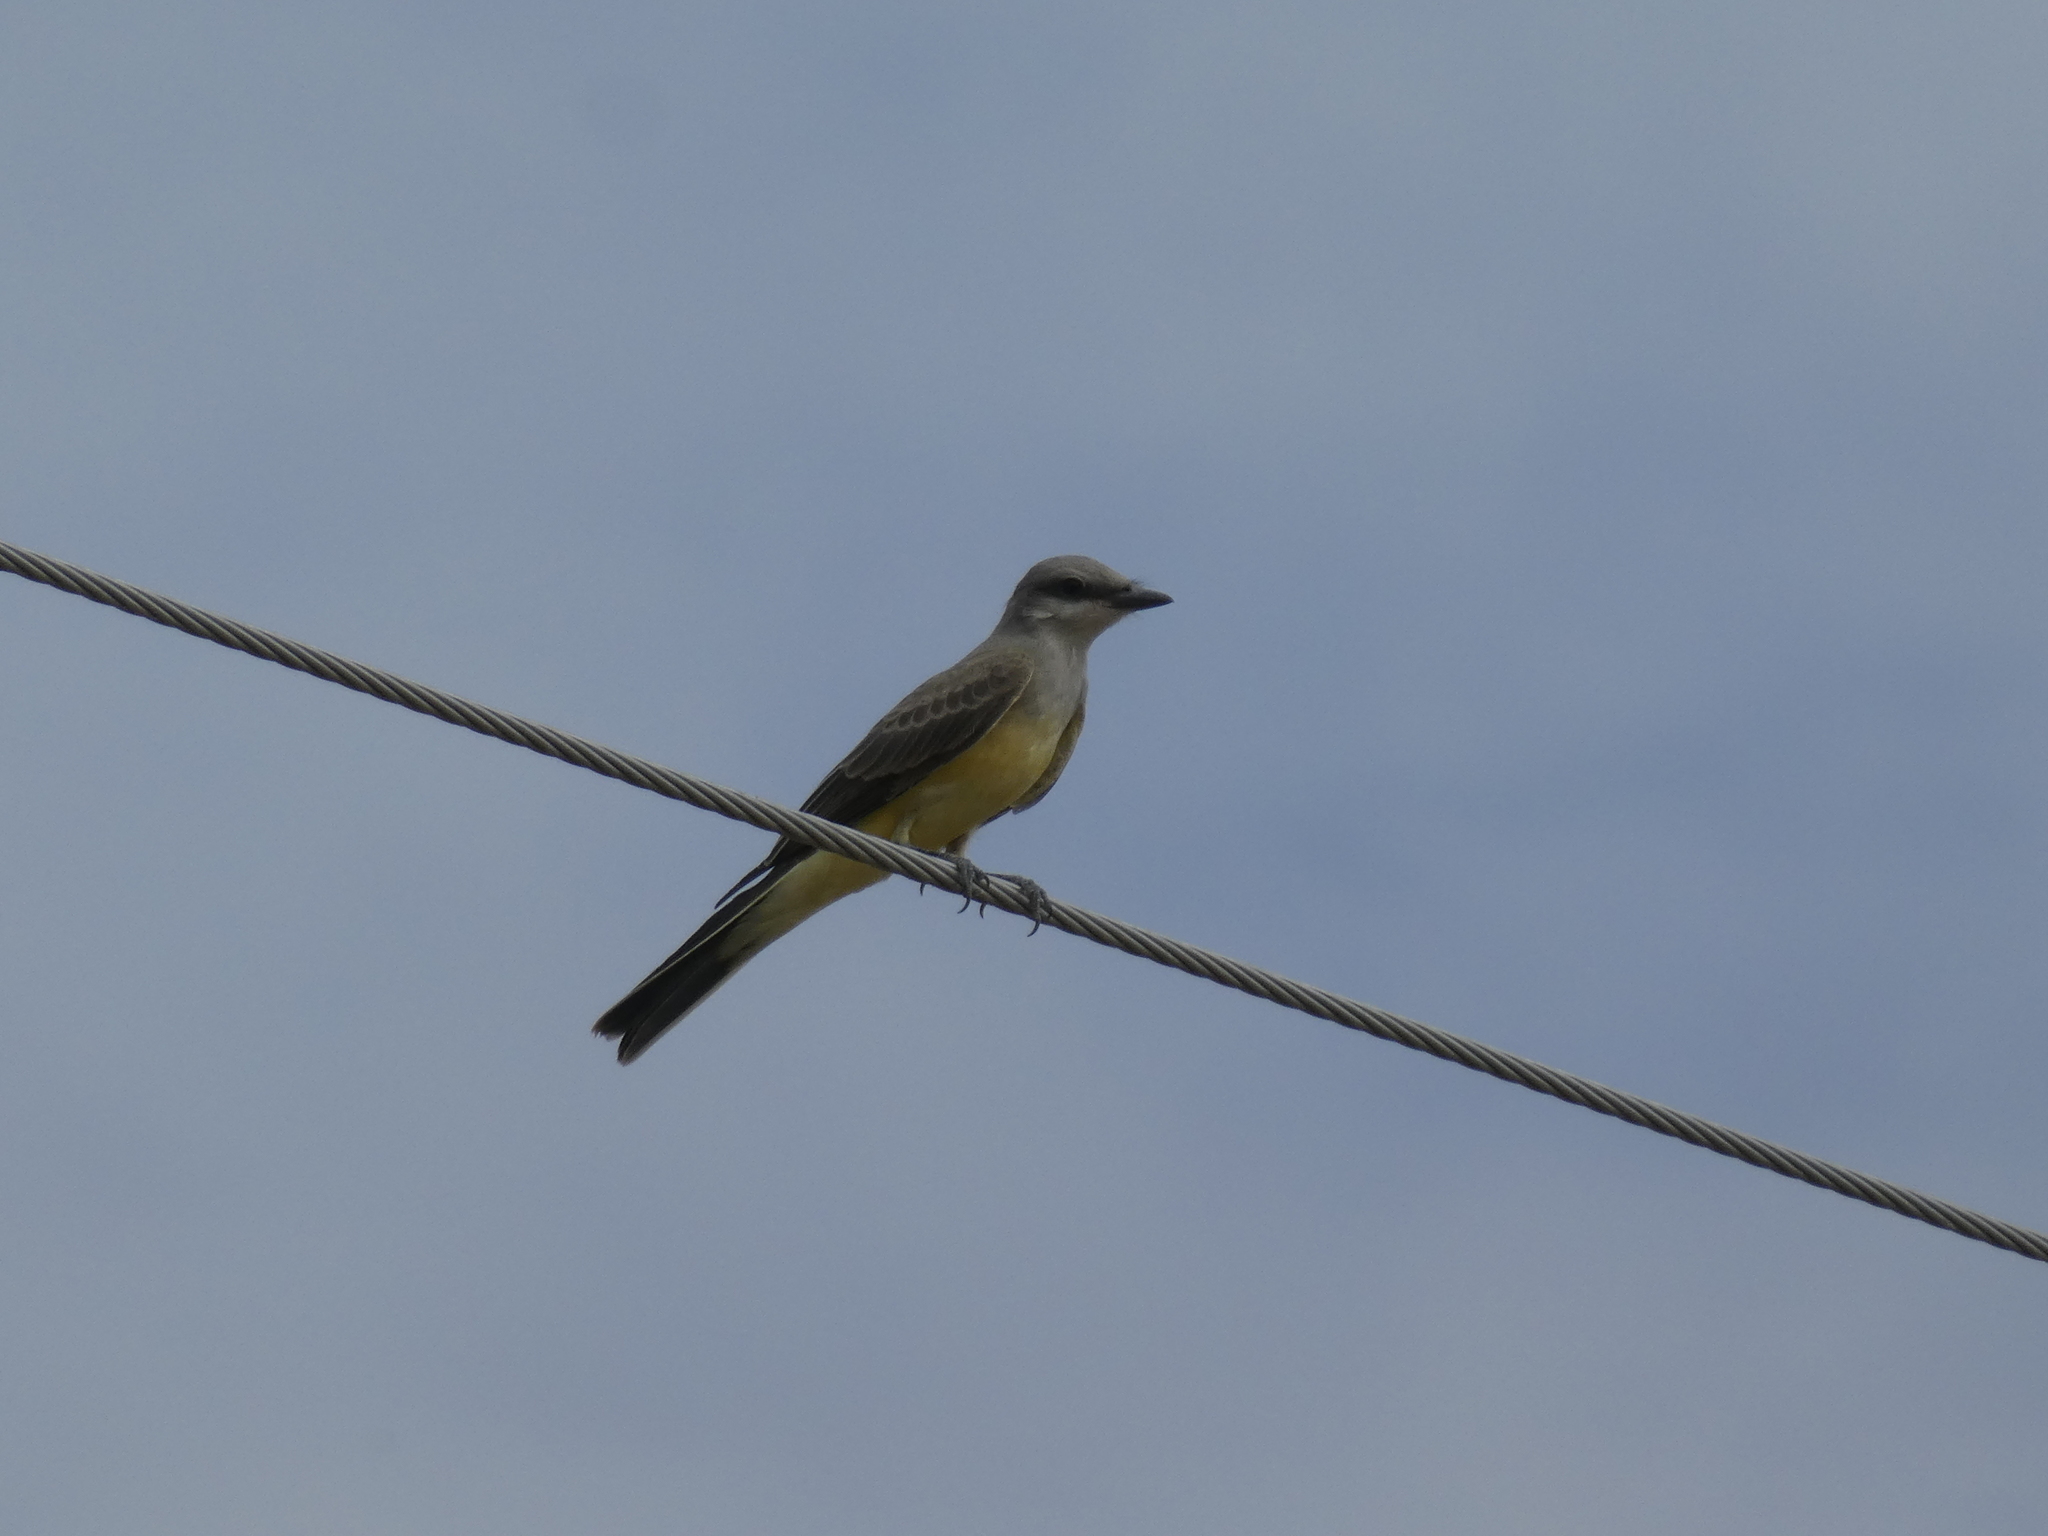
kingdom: Animalia
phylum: Chordata
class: Aves
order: Passeriformes
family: Tyrannidae
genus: Tyrannus
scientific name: Tyrannus verticalis
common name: Western kingbird
